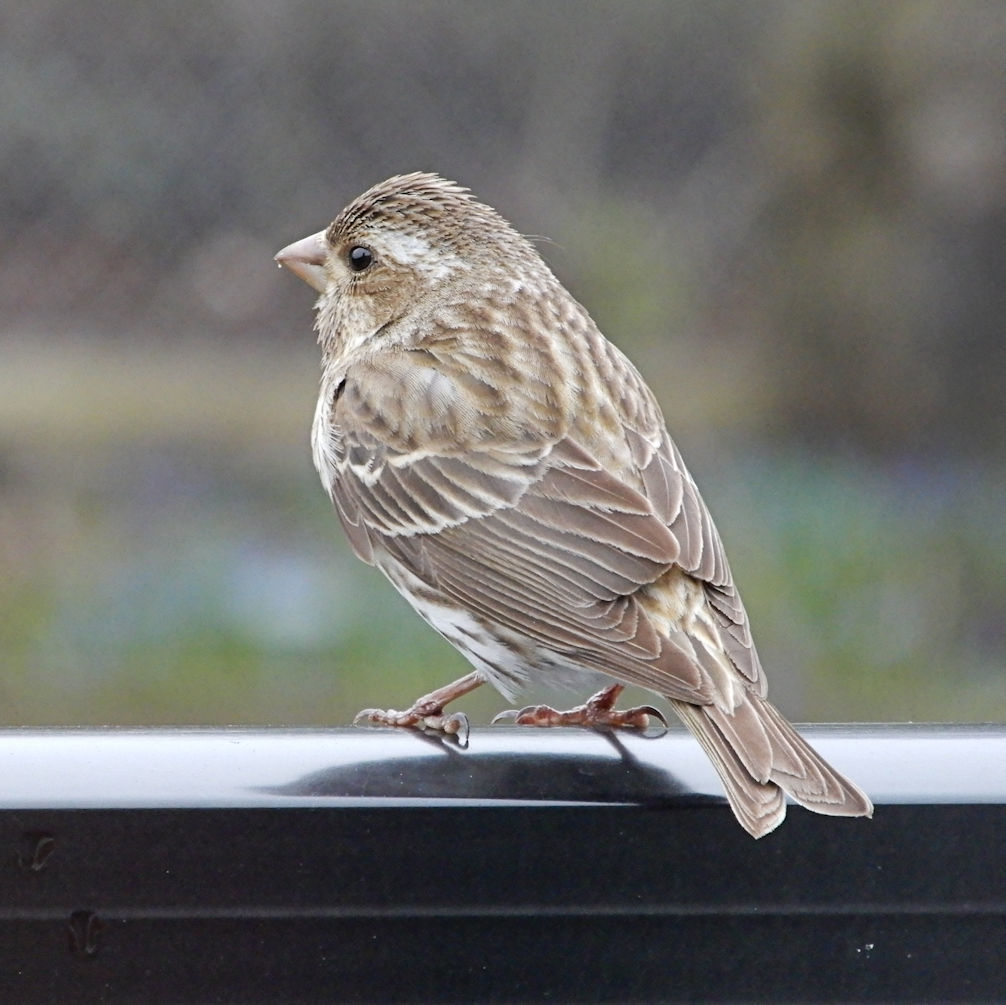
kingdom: Animalia
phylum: Chordata
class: Aves
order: Passeriformes
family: Fringillidae
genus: Haemorhous
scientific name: Haemorhous purpureus
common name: Purple finch
